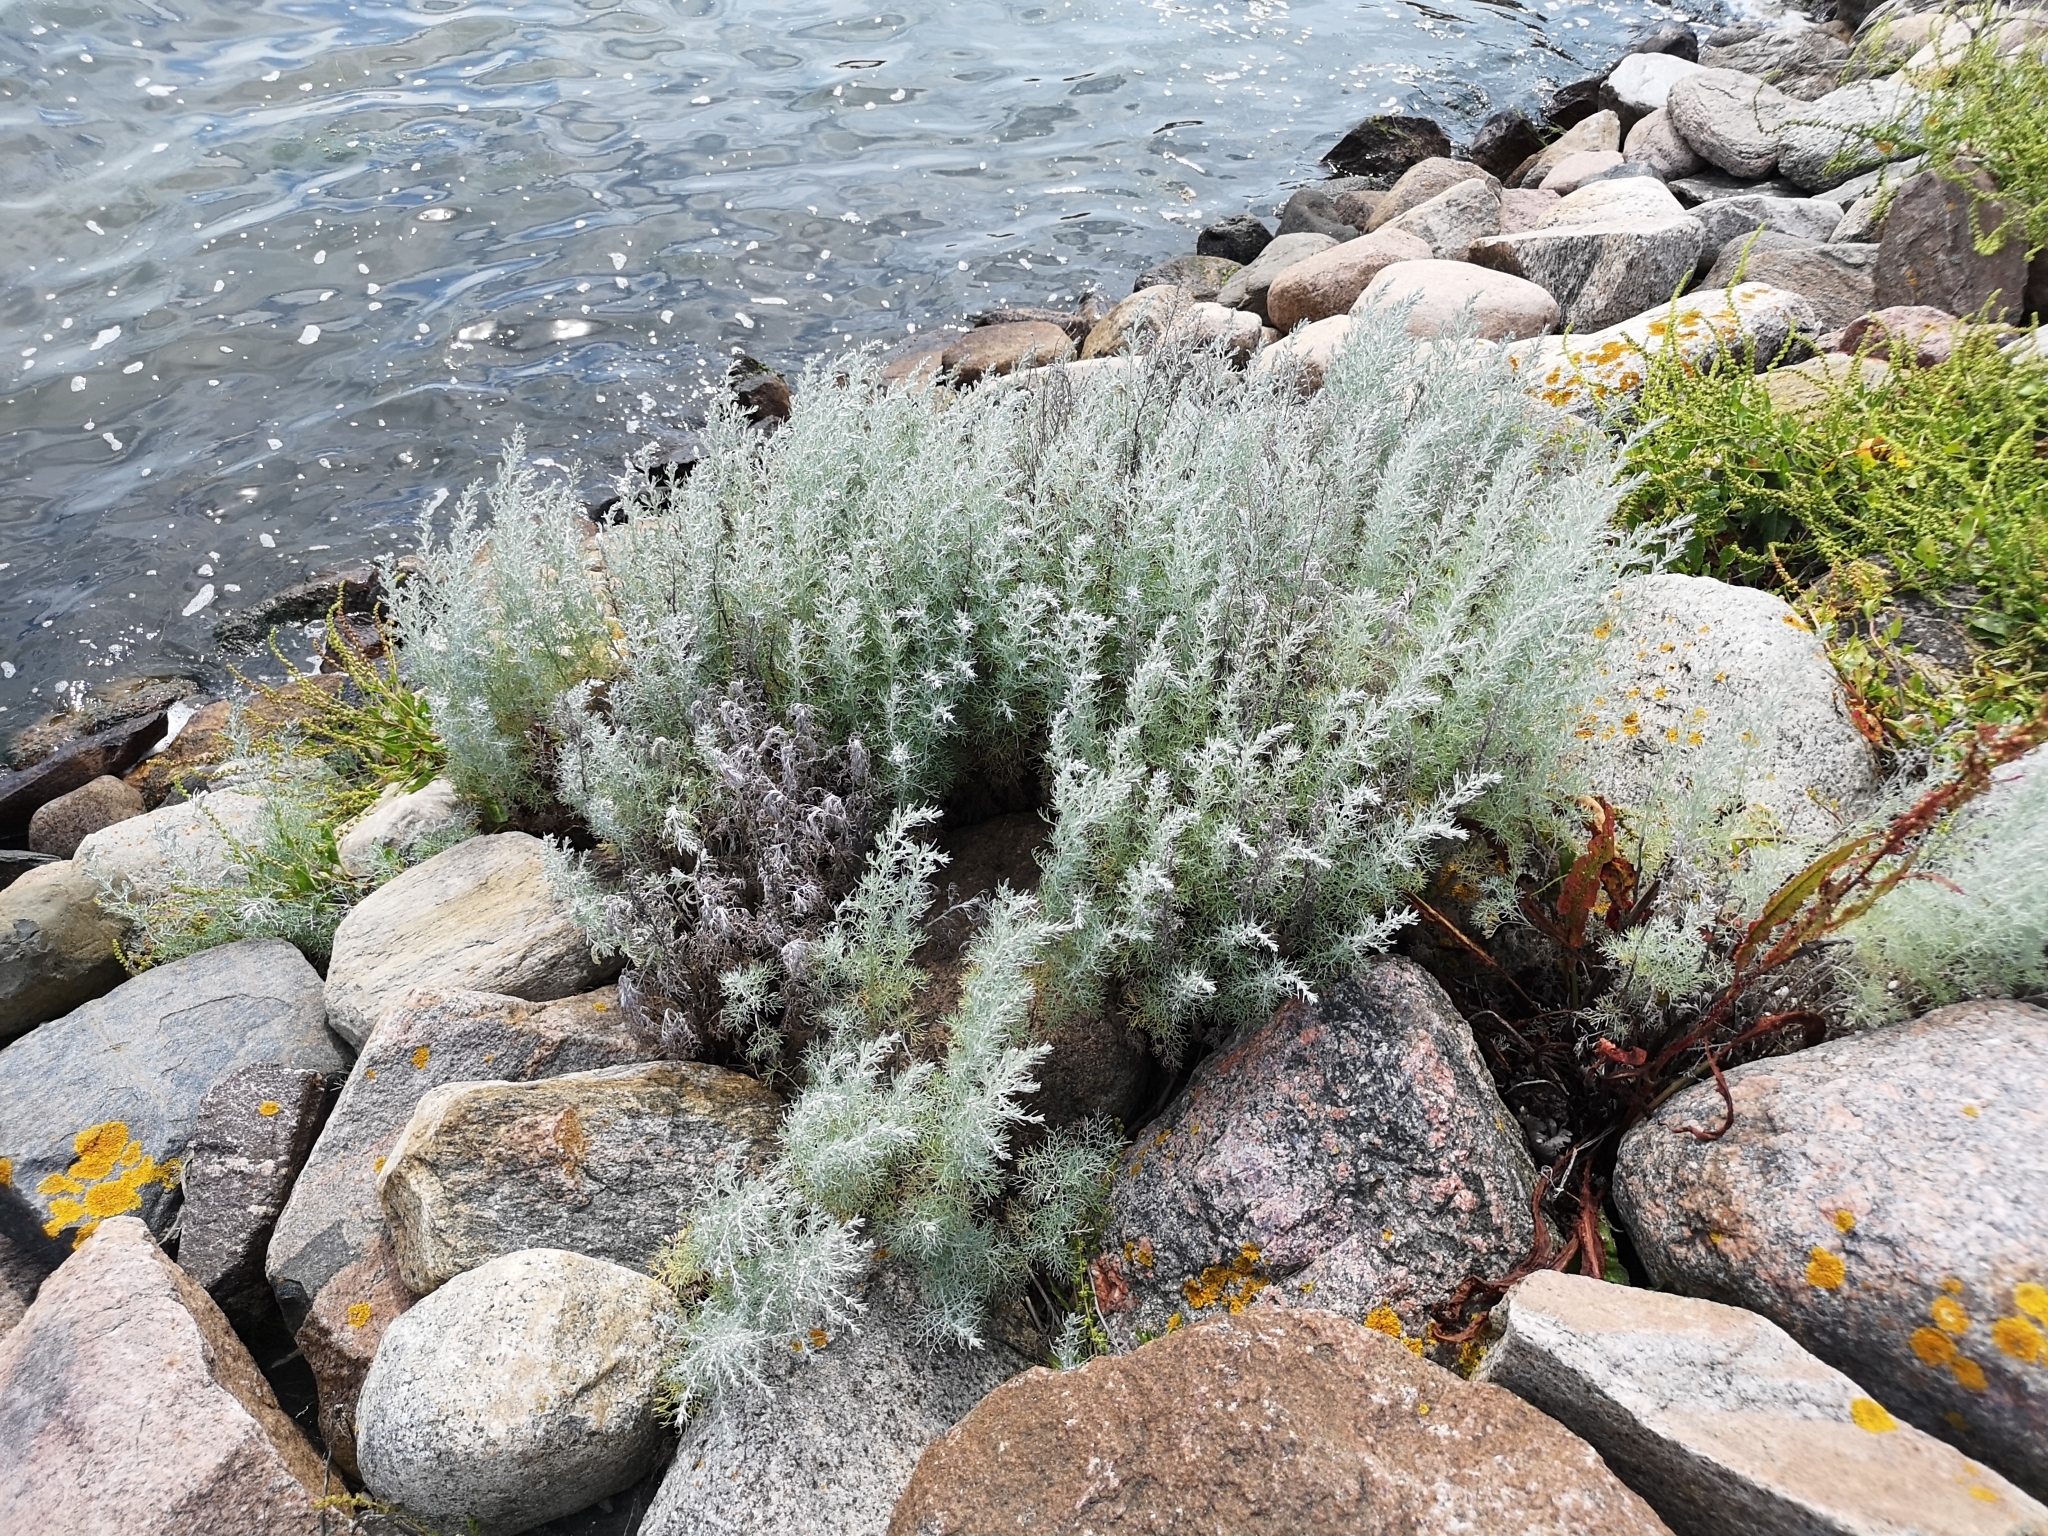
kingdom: Plantae
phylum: Tracheophyta
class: Magnoliopsida
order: Asterales
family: Asteraceae
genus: Artemisia
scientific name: Artemisia maritima
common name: Wormseed
